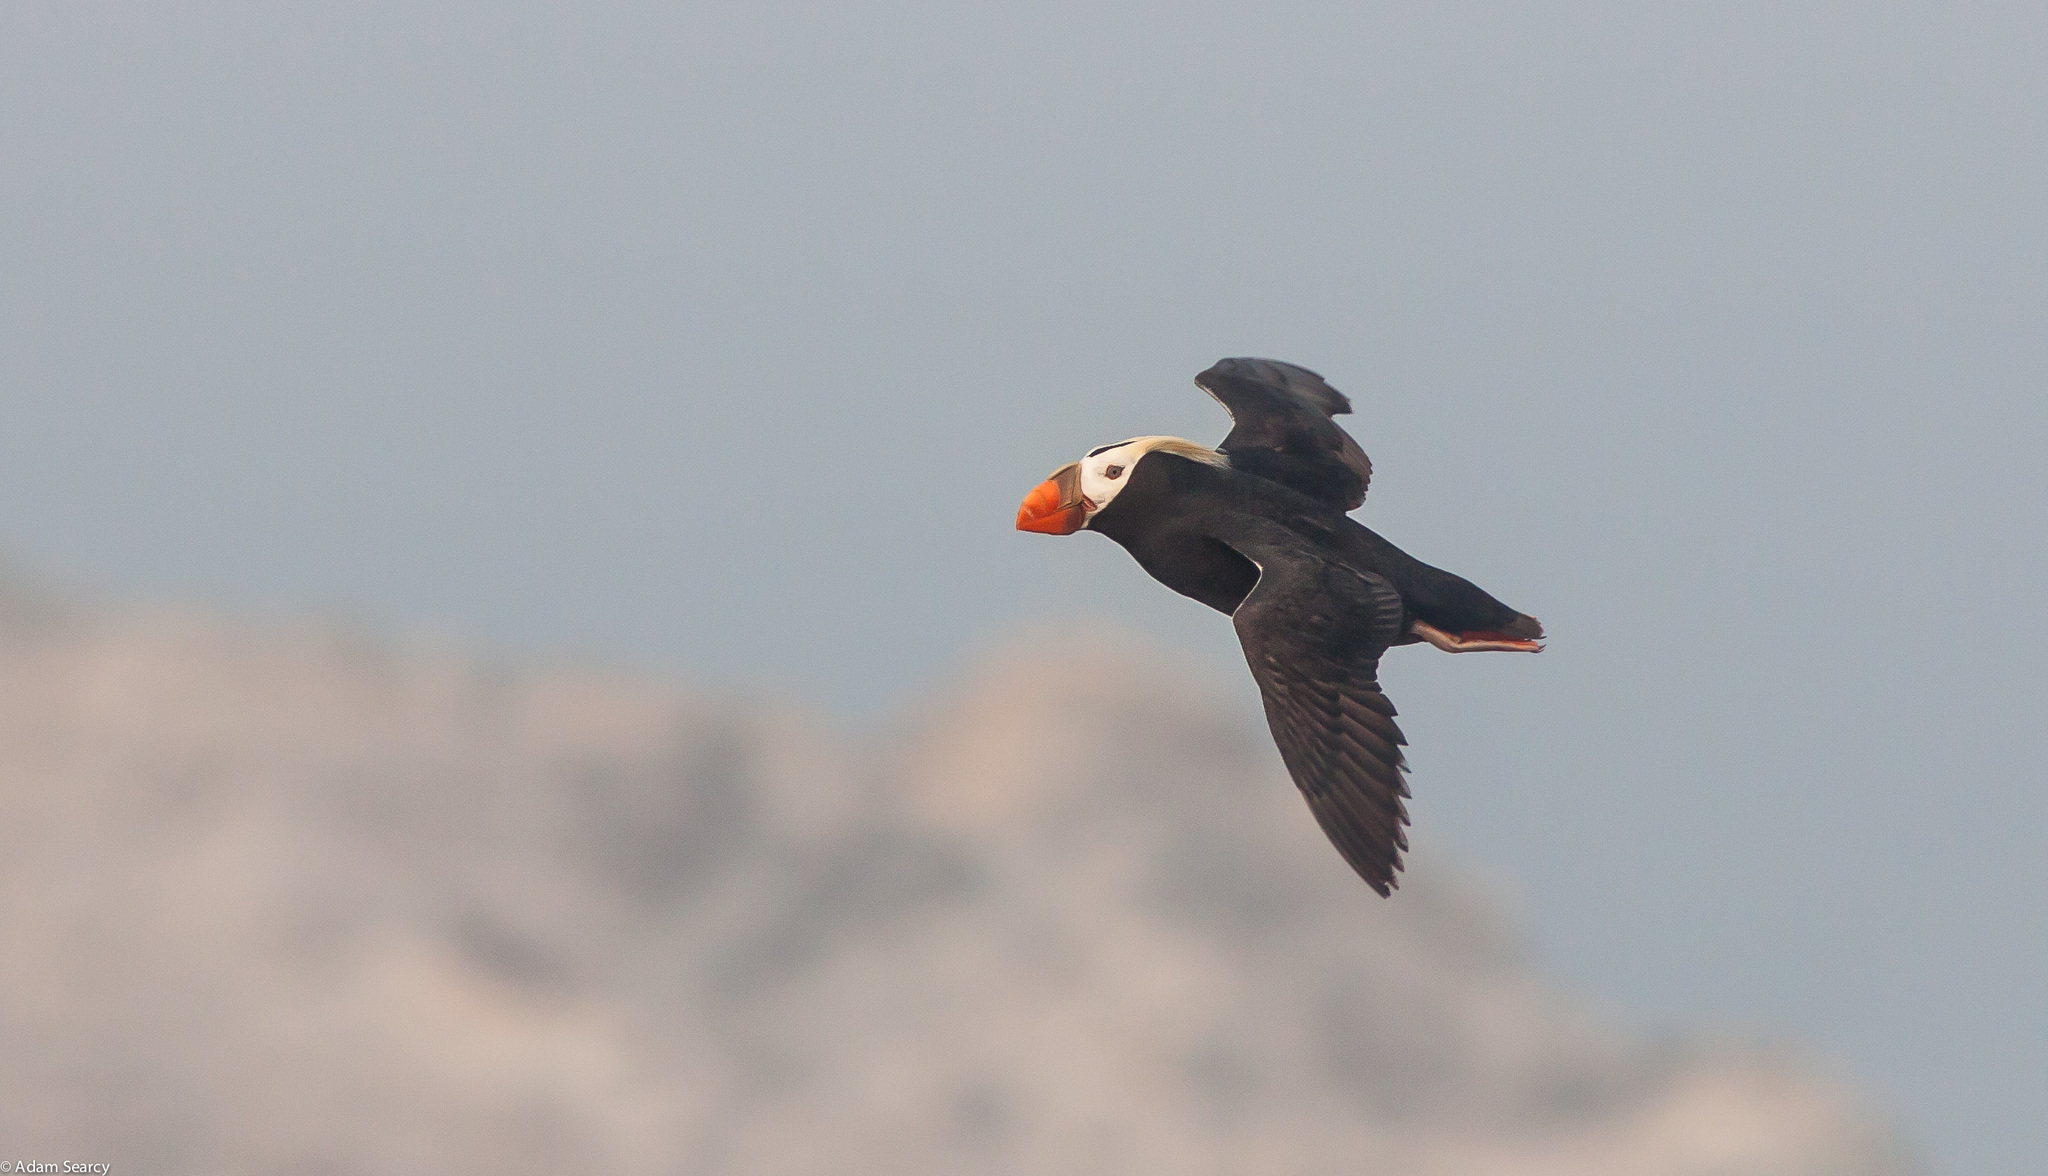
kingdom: Animalia
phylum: Chordata
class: Aves
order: Charadriiformes
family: Alcidae
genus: Fratercula
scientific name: Fratercula cirrhata
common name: Tufted puffin
